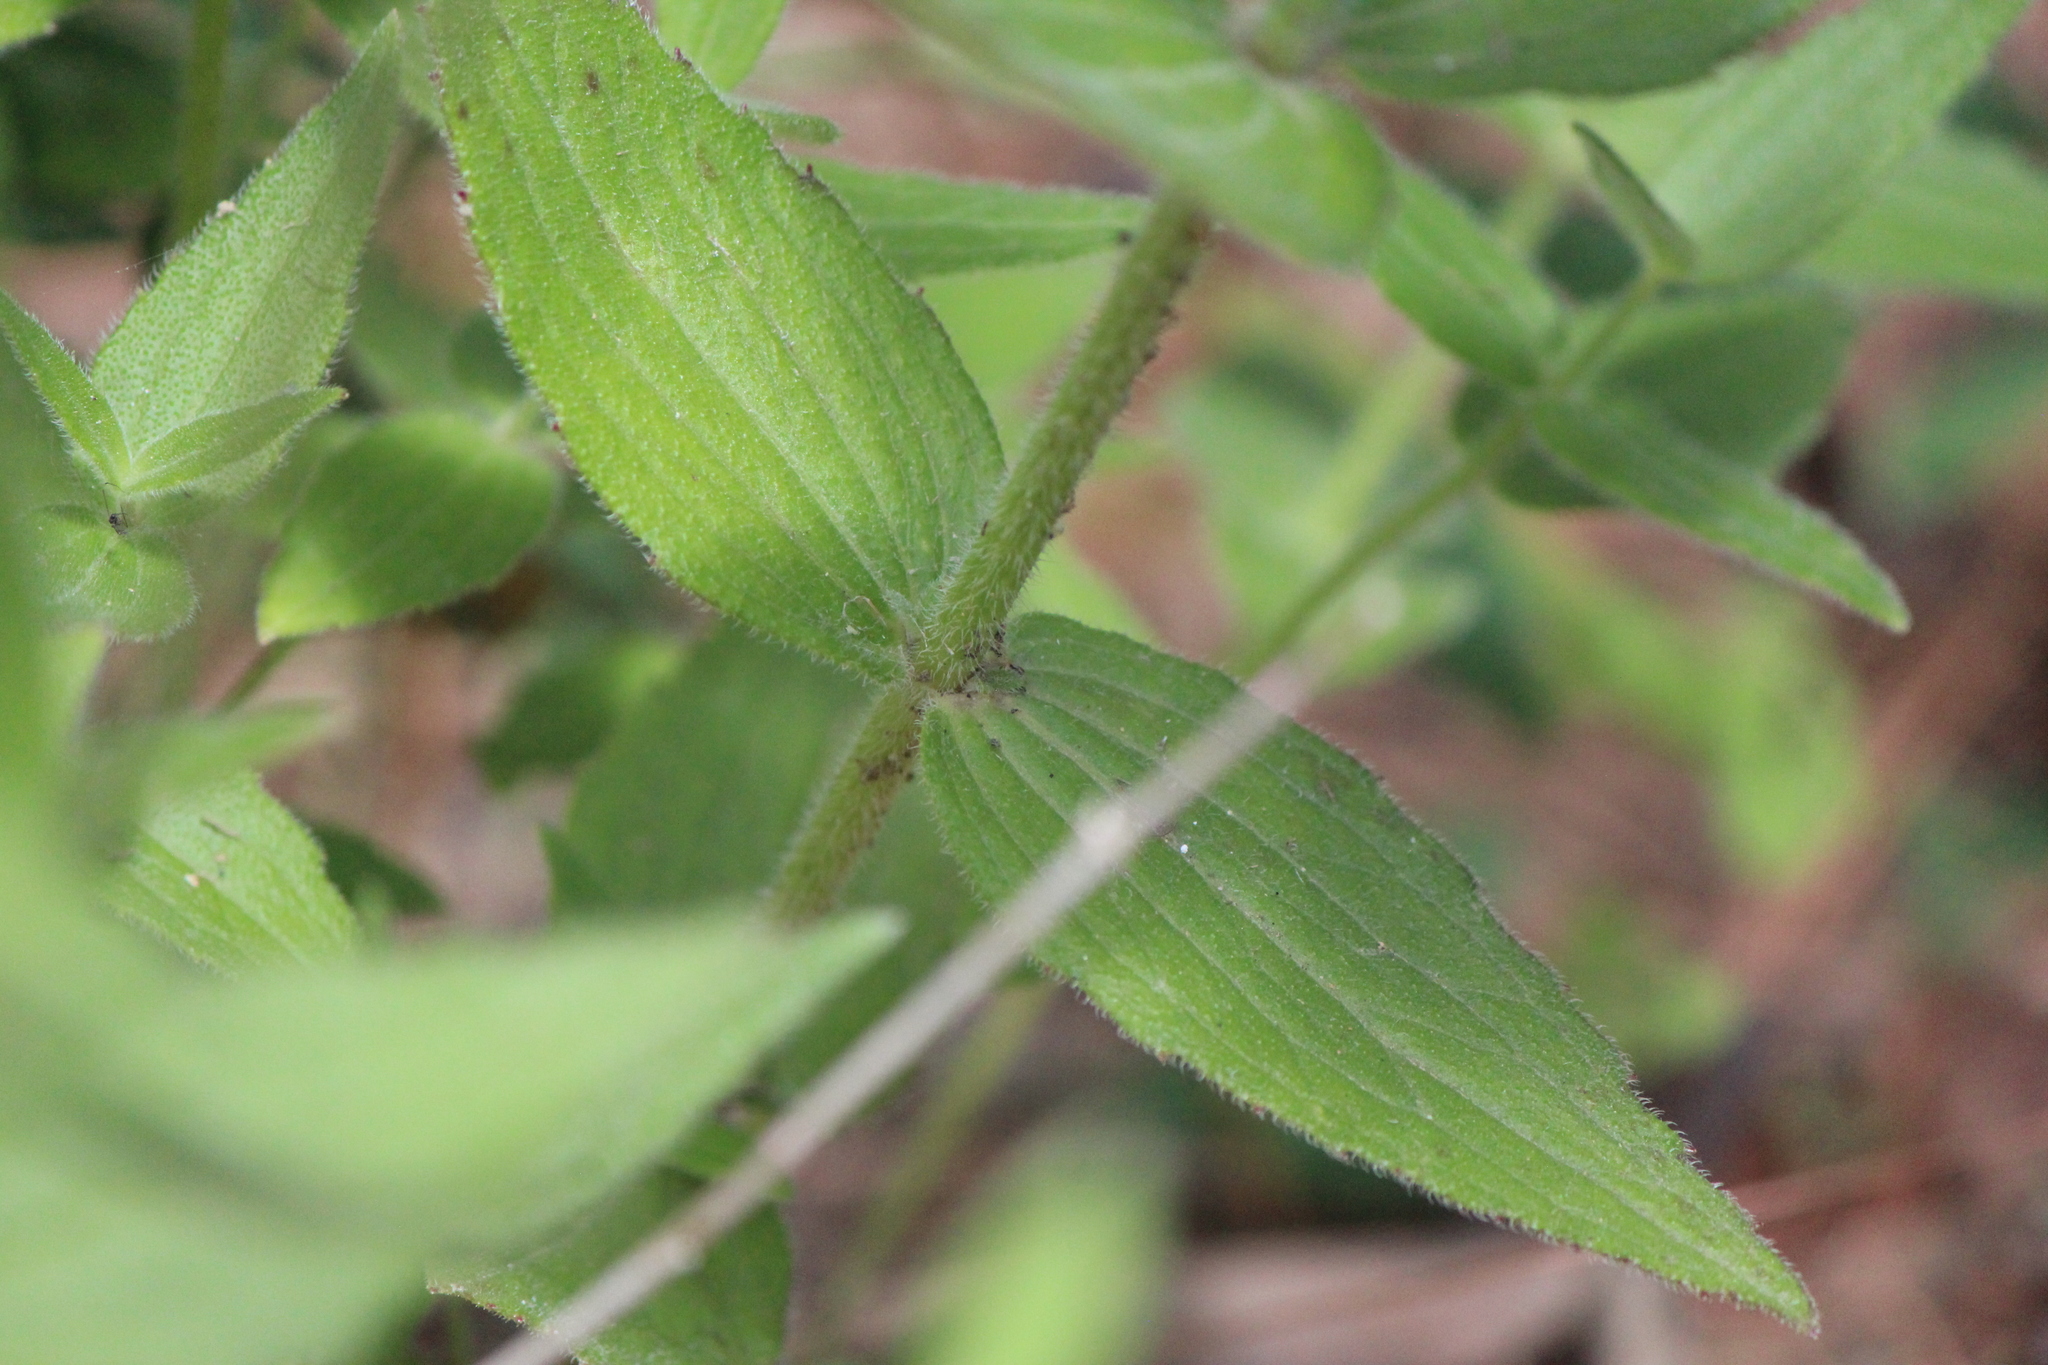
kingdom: Plantae
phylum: Tracheophyta
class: Magnoliopsida
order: Asterales
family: Asteraceae
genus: Alloispermum
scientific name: Alloispermum scabrum
